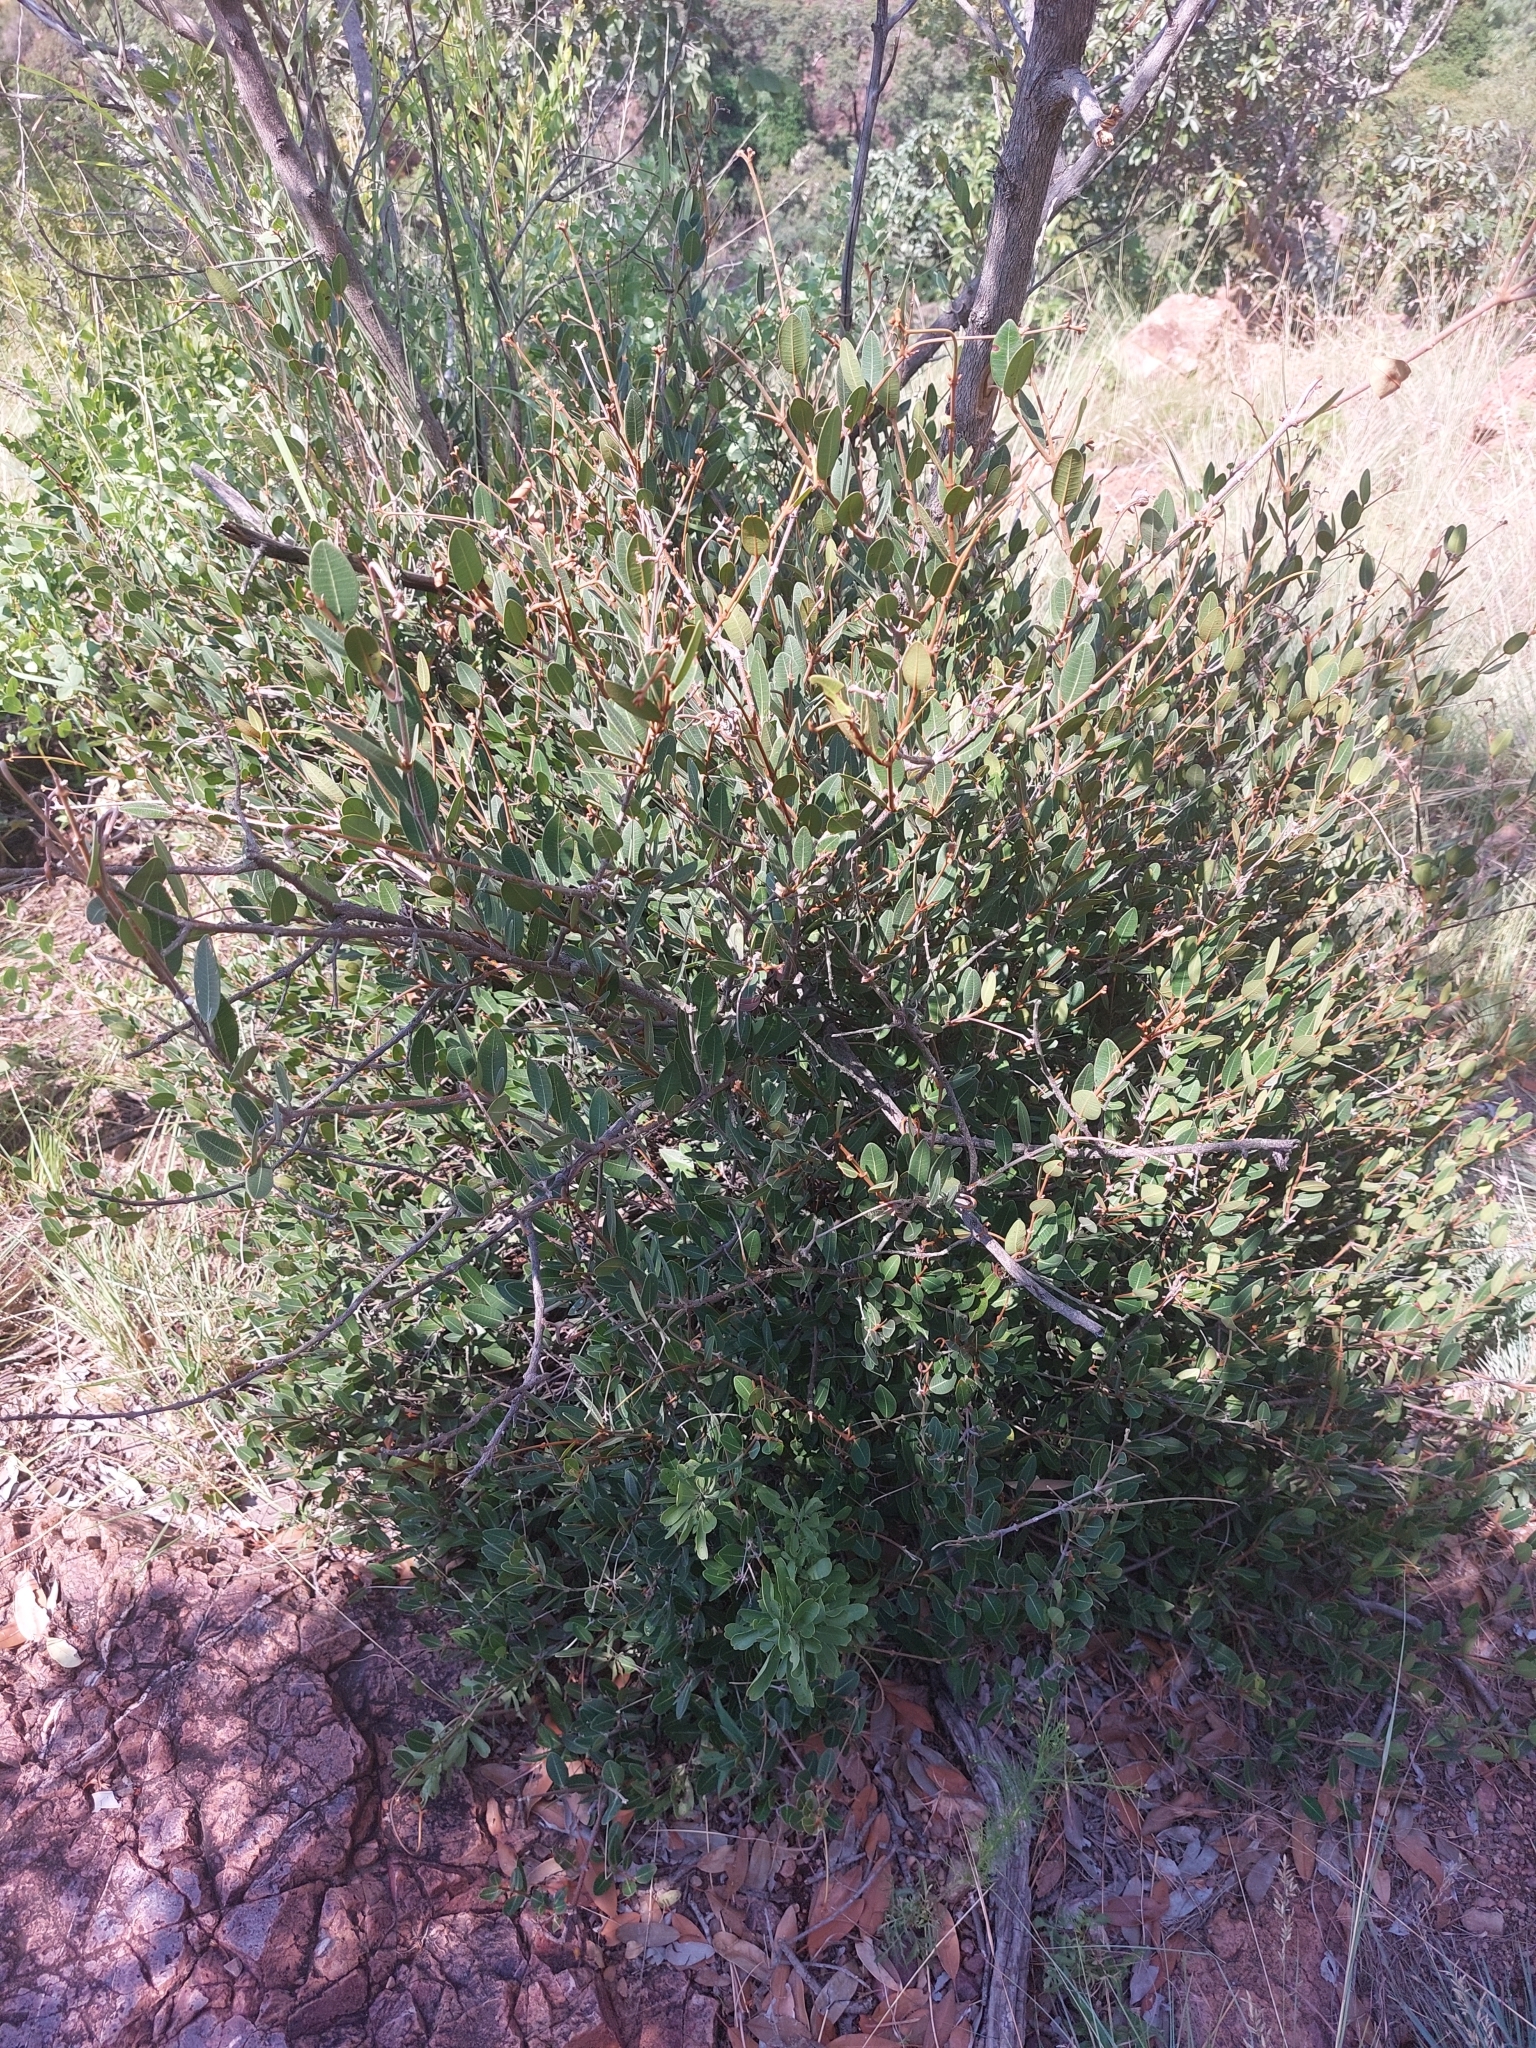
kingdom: Plantae
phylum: Tracheophyta
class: Magnoliopsida
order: Gentianales
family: Apocynaceae
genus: Ancylobothrys
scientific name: Ancylobothrys capensis
